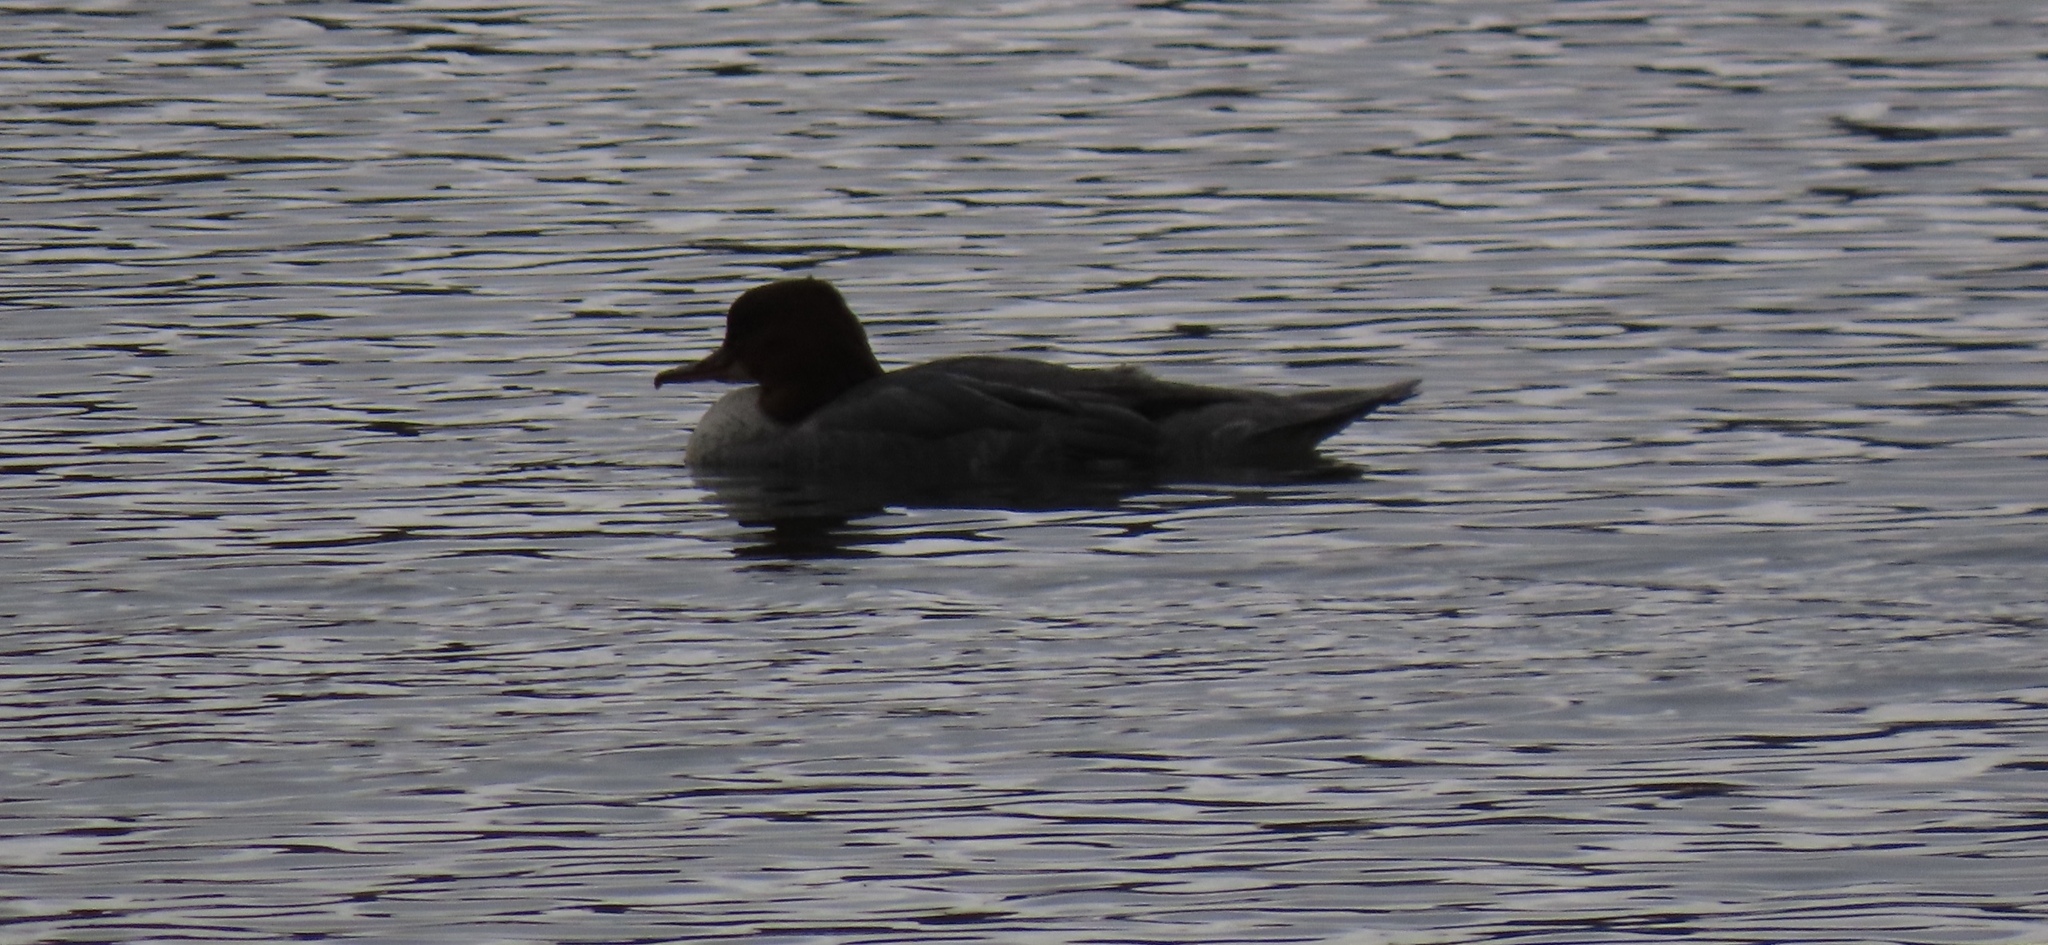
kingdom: Animalia
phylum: Chordata
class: Aves
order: Anseriformes
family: Anatidae
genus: Mergus
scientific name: Mergus merganser
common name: Common merganser
